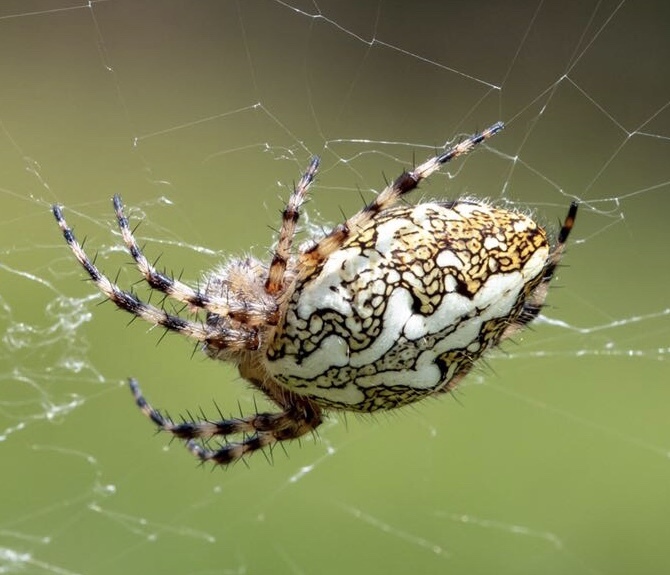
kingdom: Animalia
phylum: Arthropoda
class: Arachnida
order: Araneae
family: Araneidae
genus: Aculepeira
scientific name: Aculepeira ceropegia
